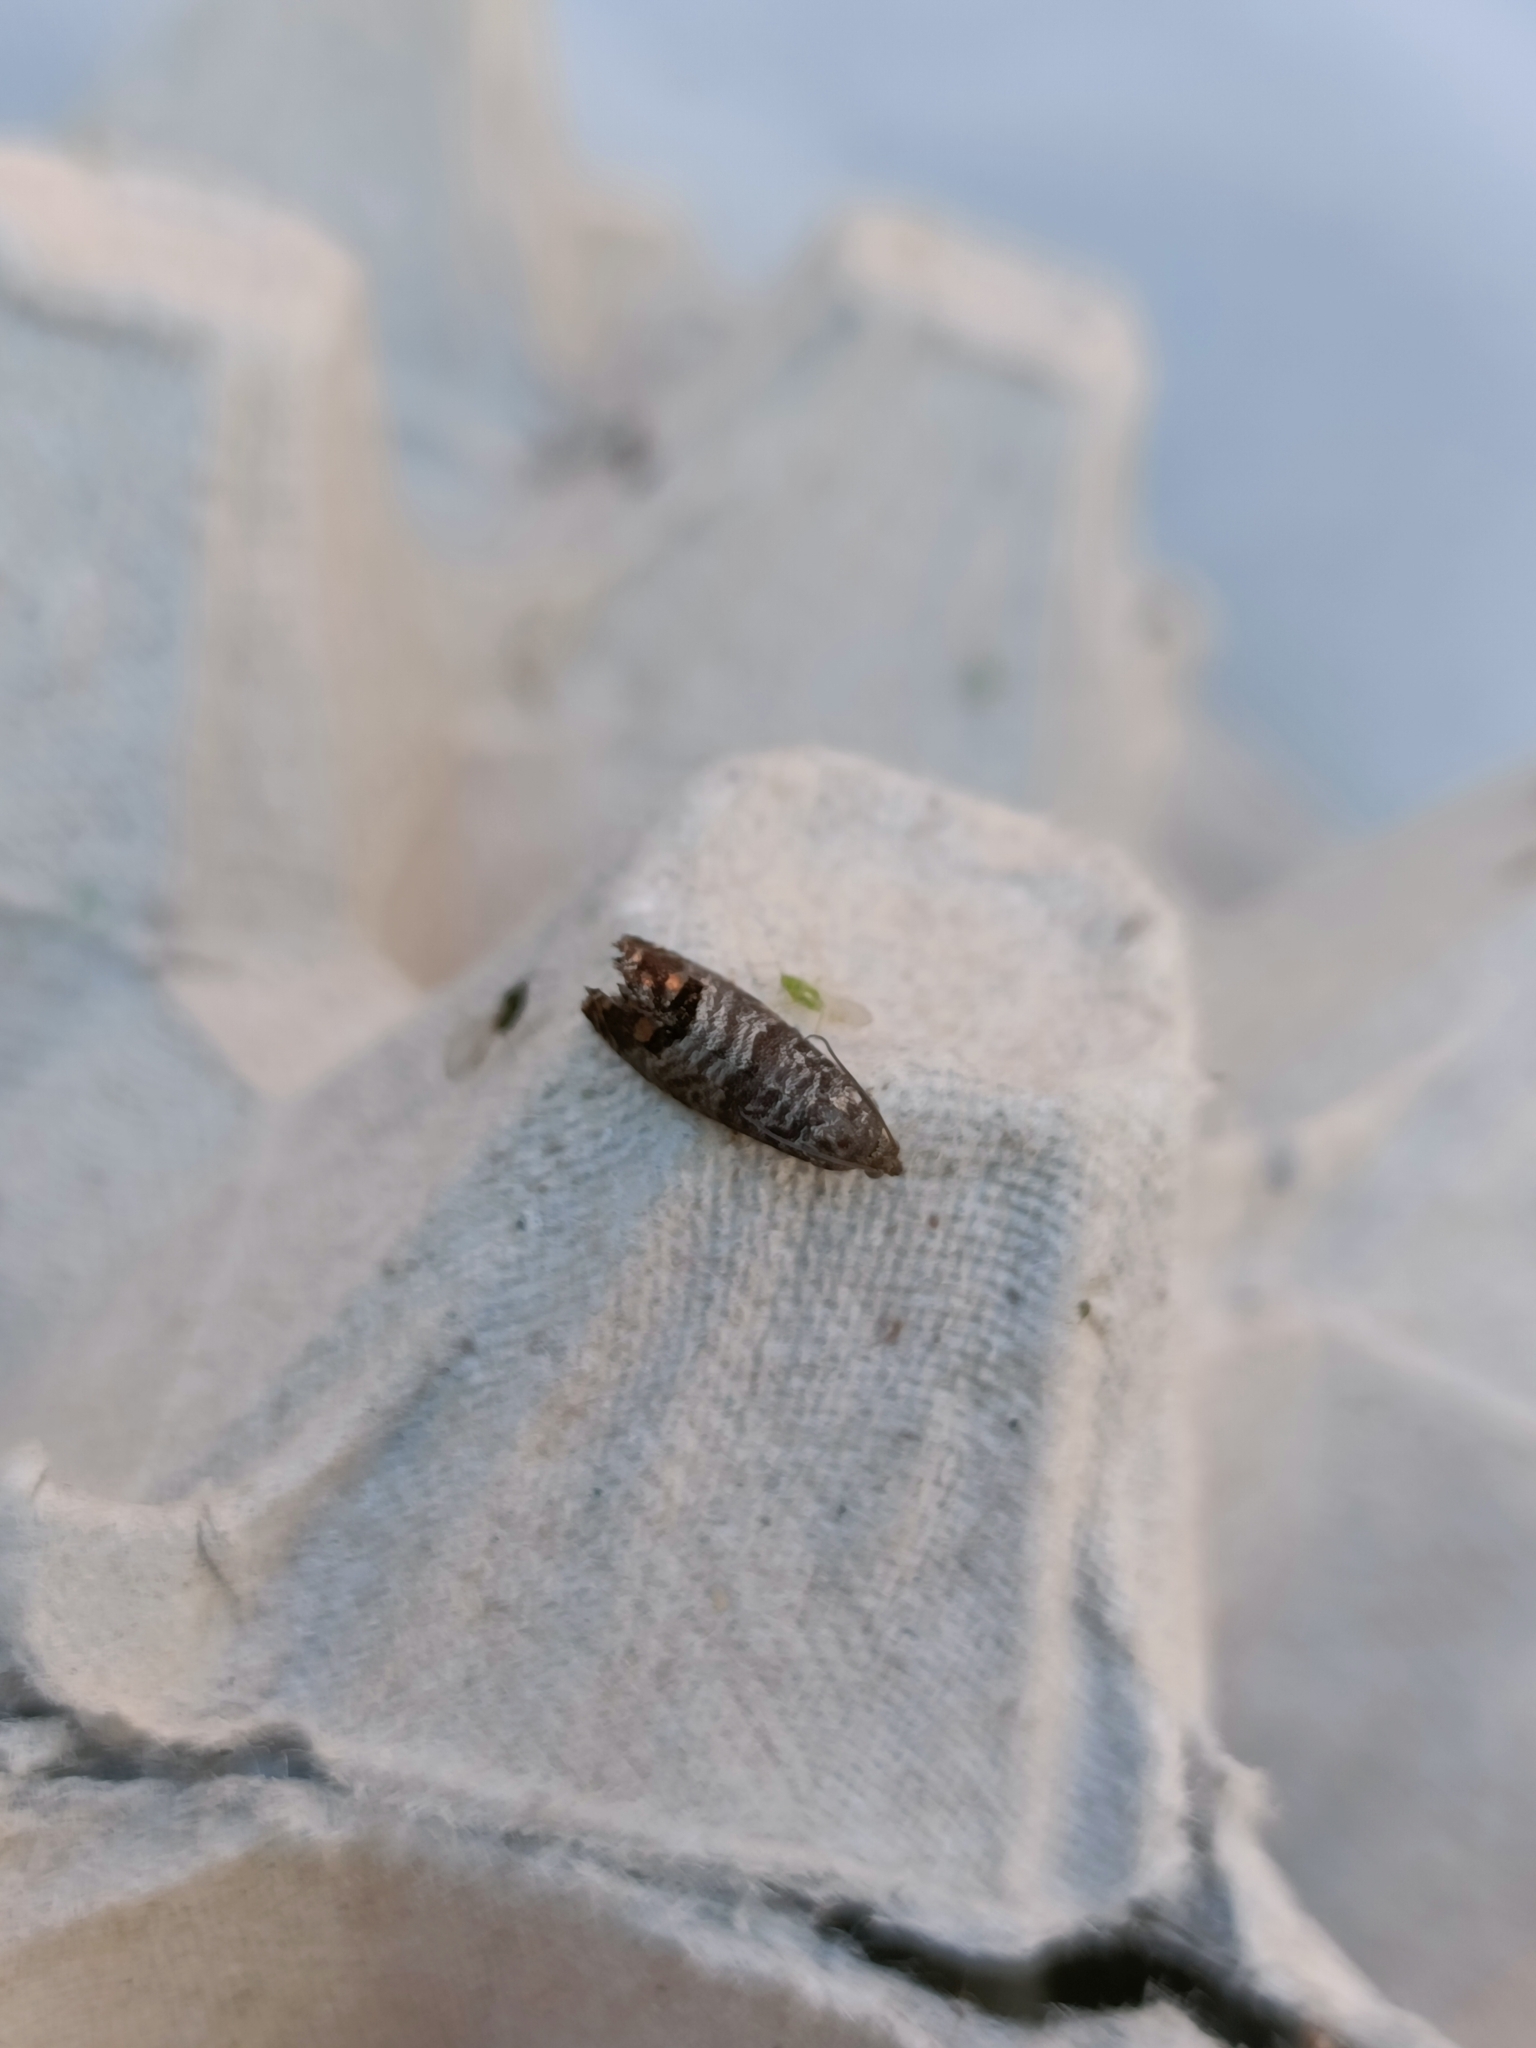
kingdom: Animalia
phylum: Arthropoda
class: Insecta
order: Lepidoptera
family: Tortricidae
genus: Cydia
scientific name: Cydia pomonella
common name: Codling moth
